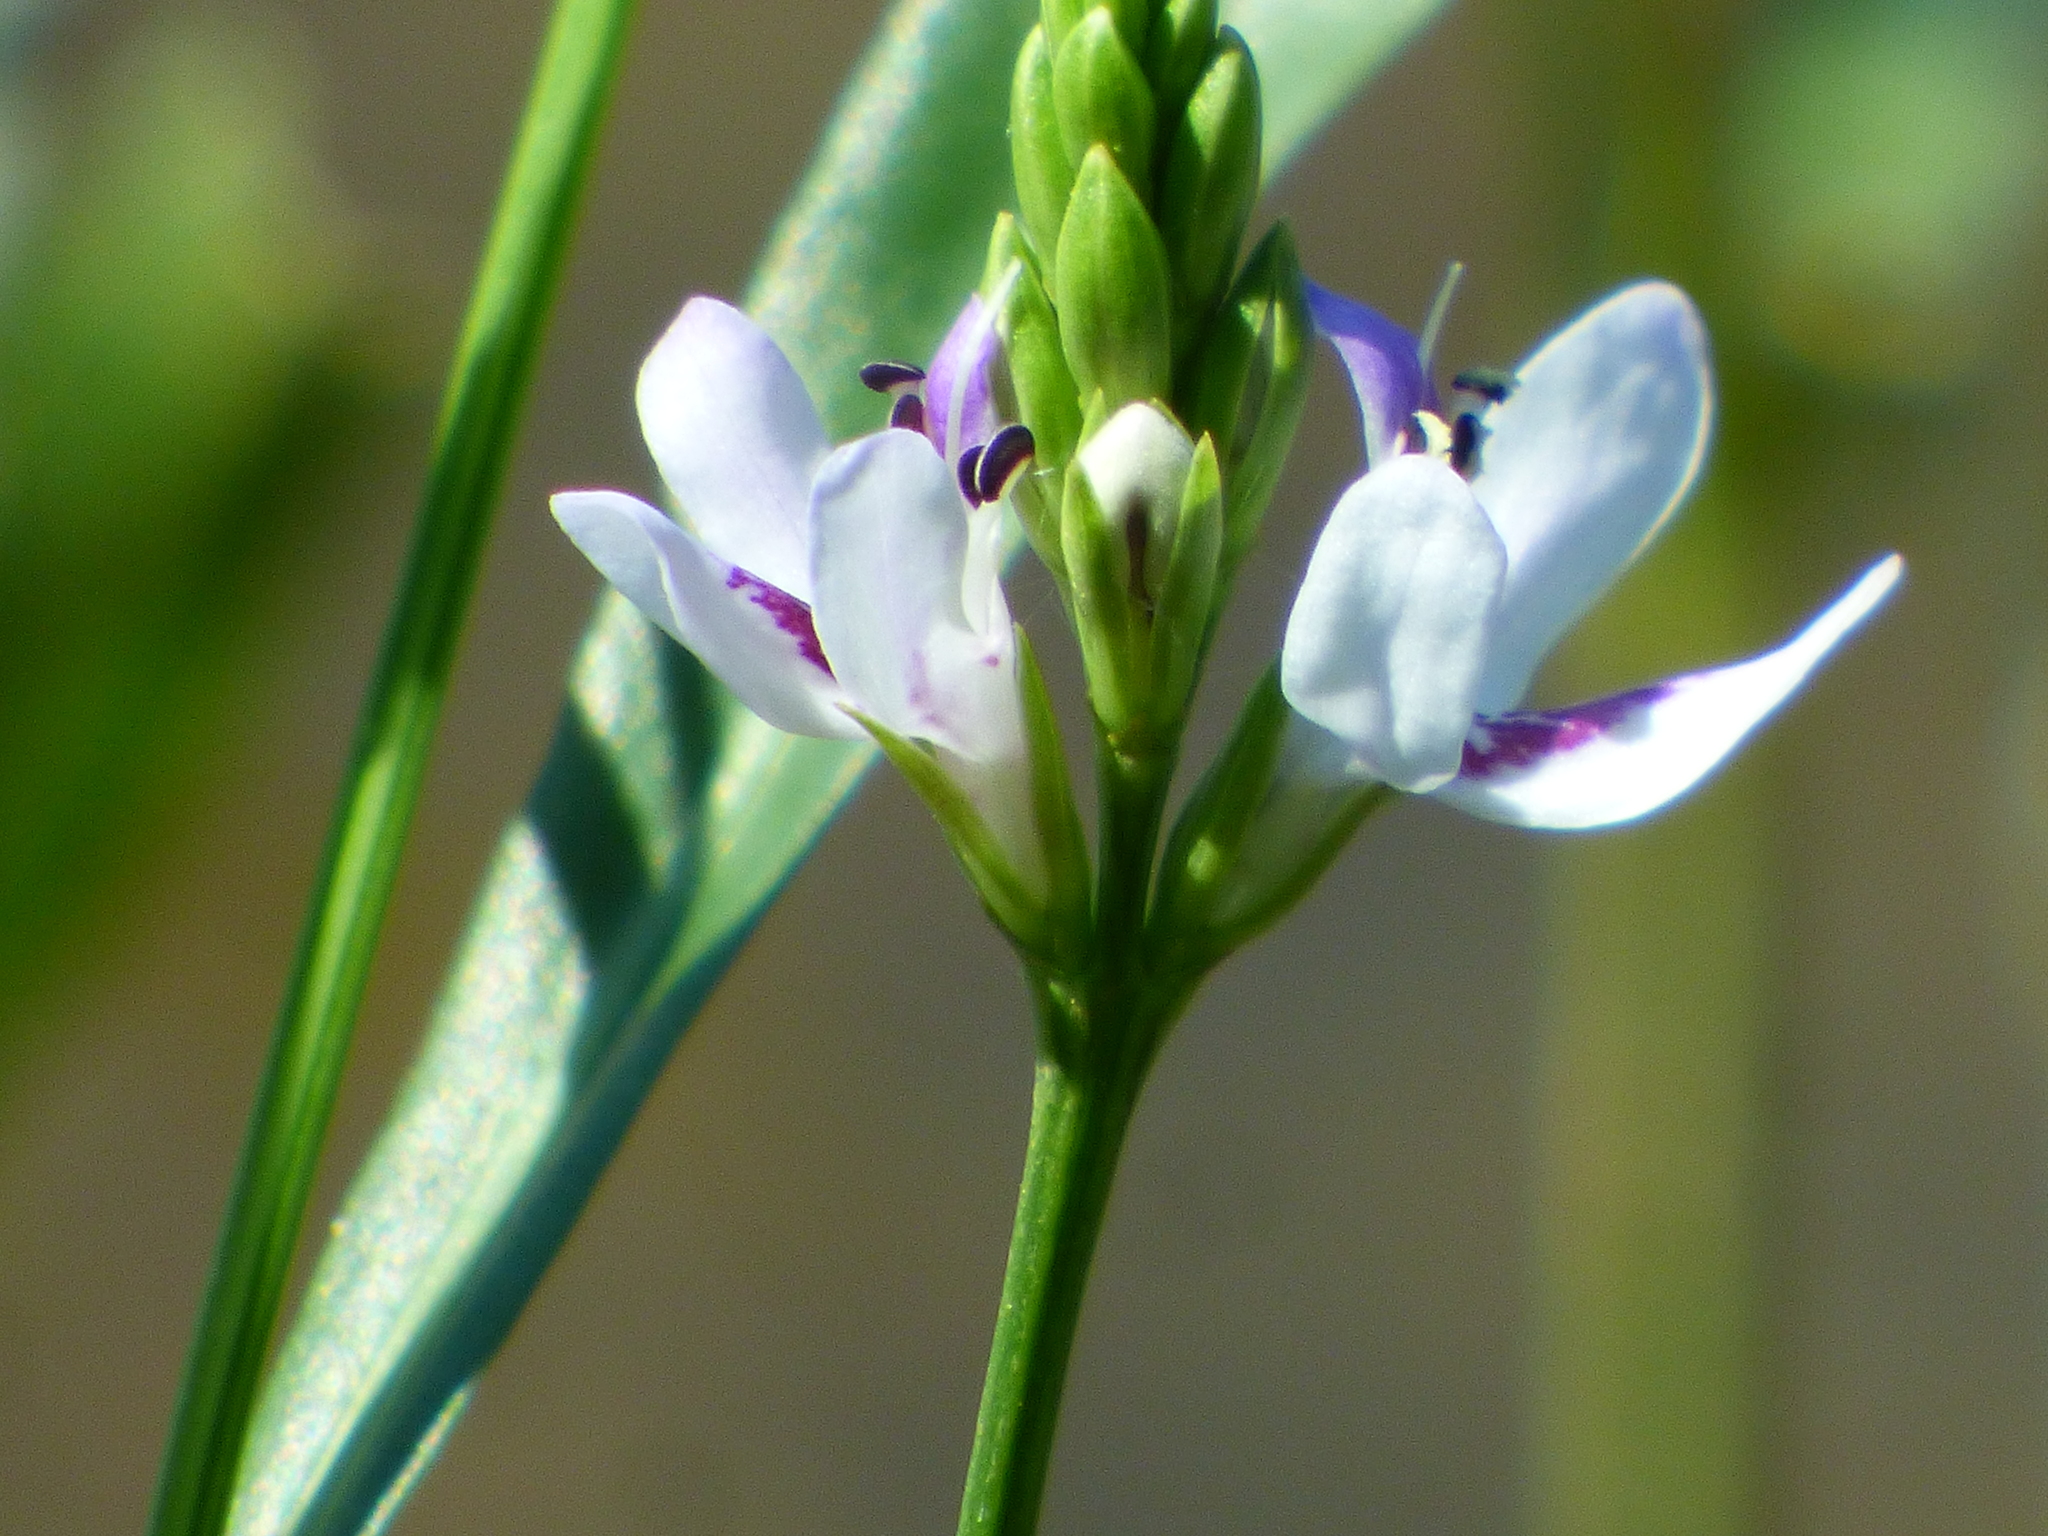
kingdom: Plantae
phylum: Tracheophyta
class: Magnoliopsida
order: Lamiales
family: Acanthaceae
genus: Dianthera
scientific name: Dianthera americana
